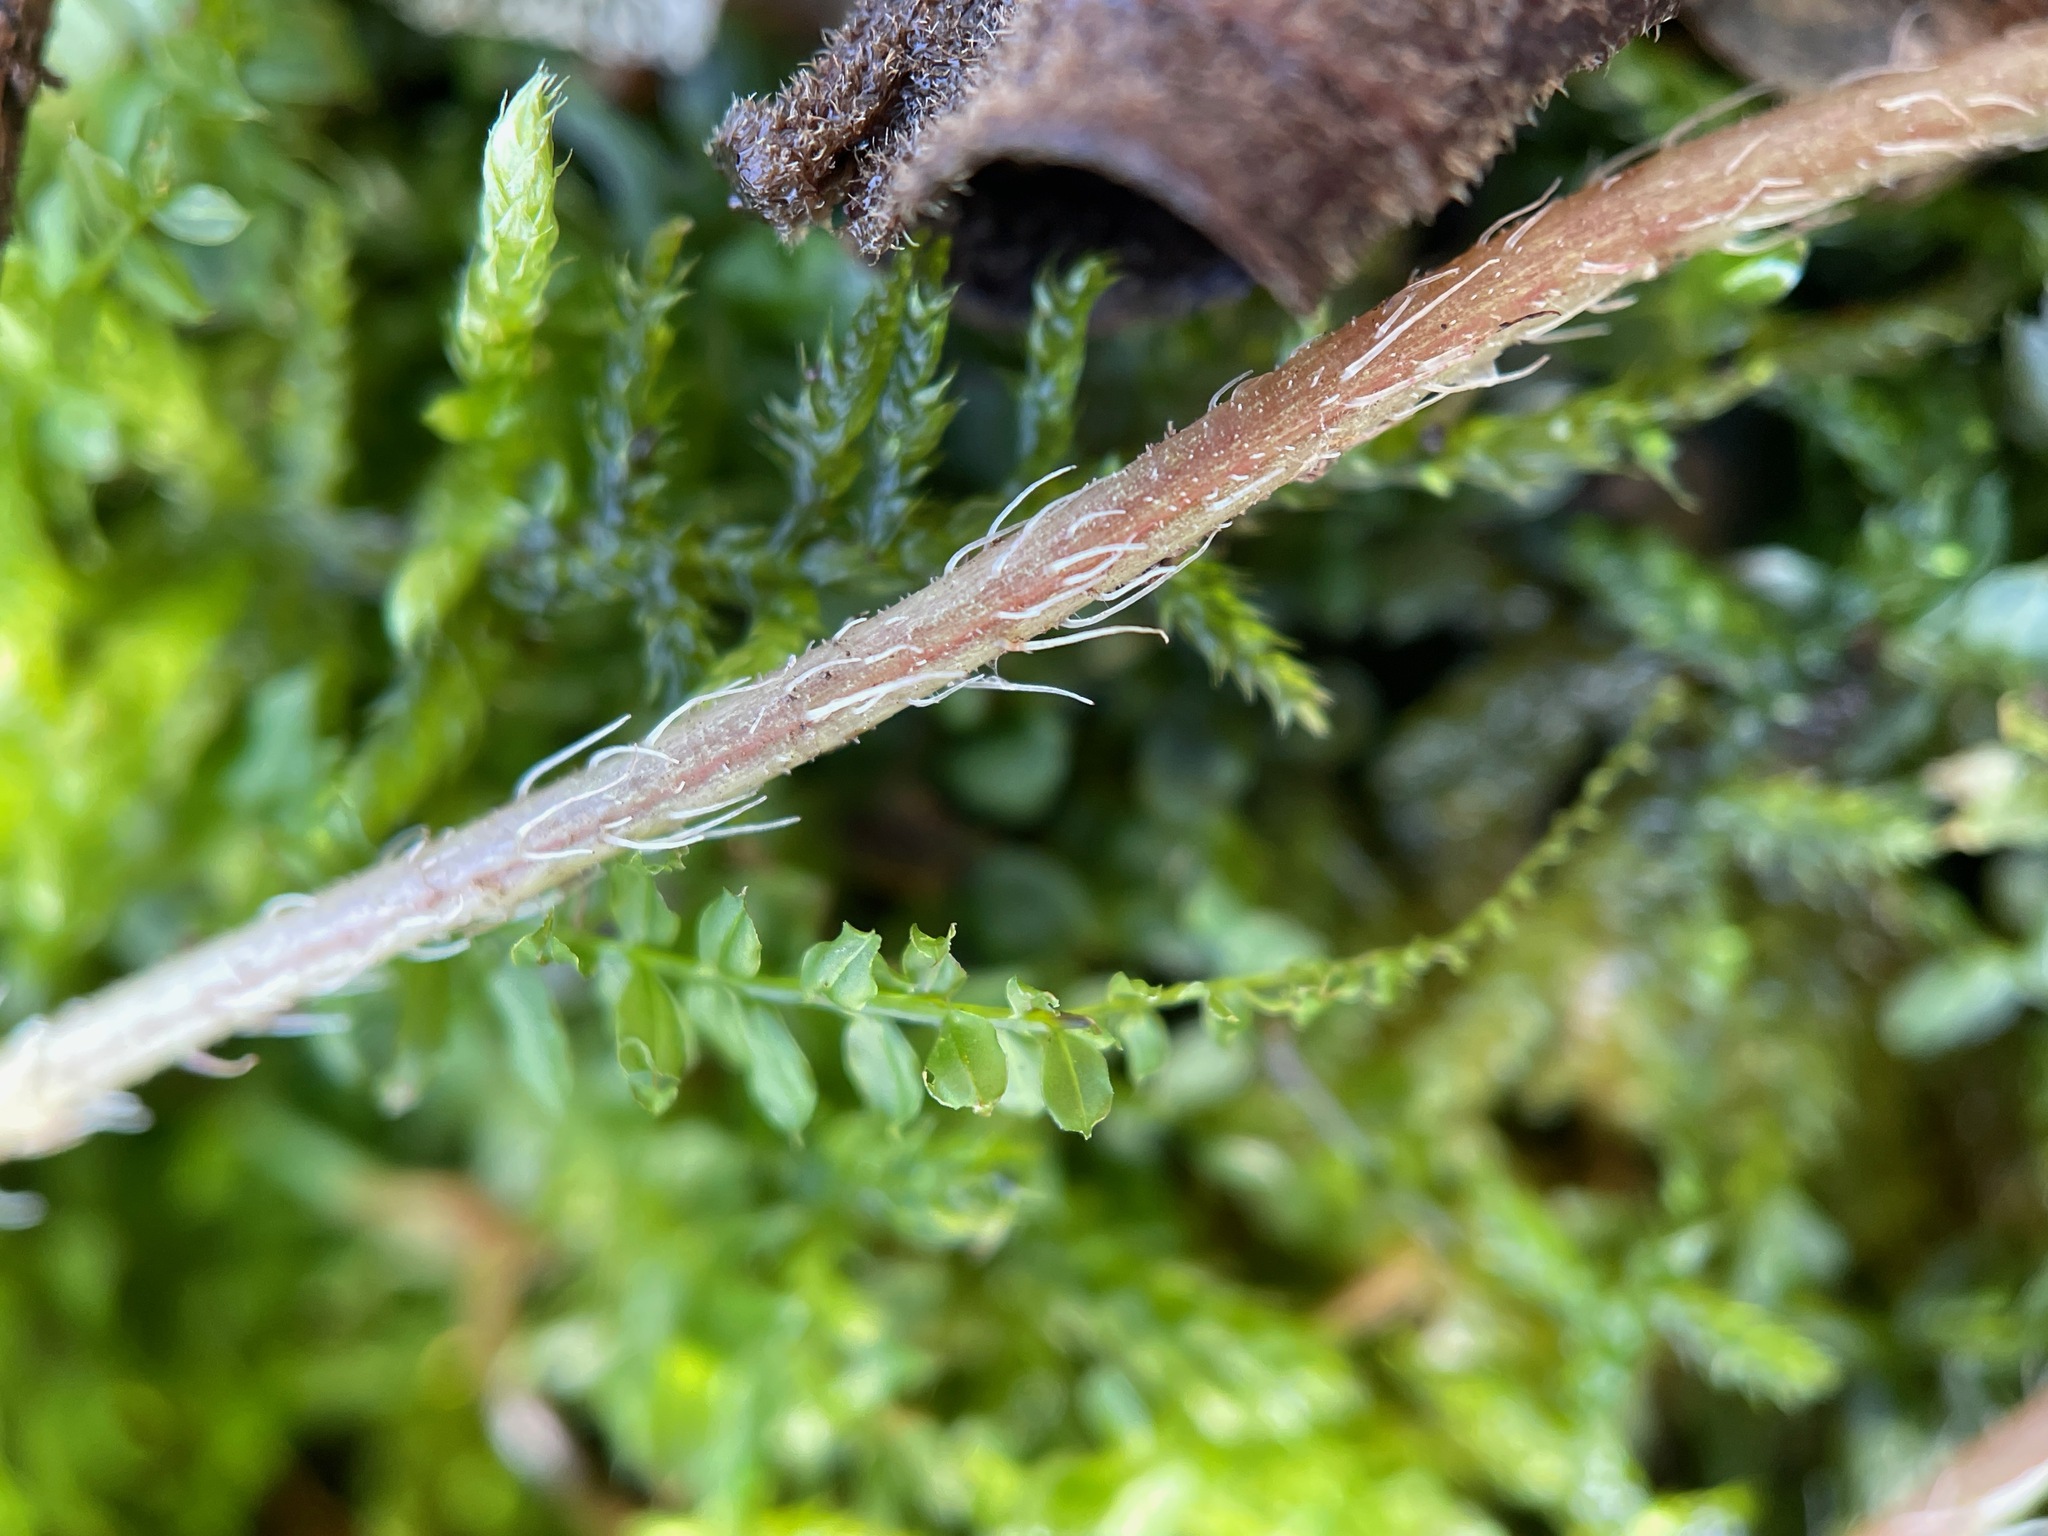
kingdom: Plantae
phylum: Tracheophyta
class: Magnoliopsida
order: Saxifragales
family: Saxifragaceae
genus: Mitella
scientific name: Mitella diphylla
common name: Coolwort
